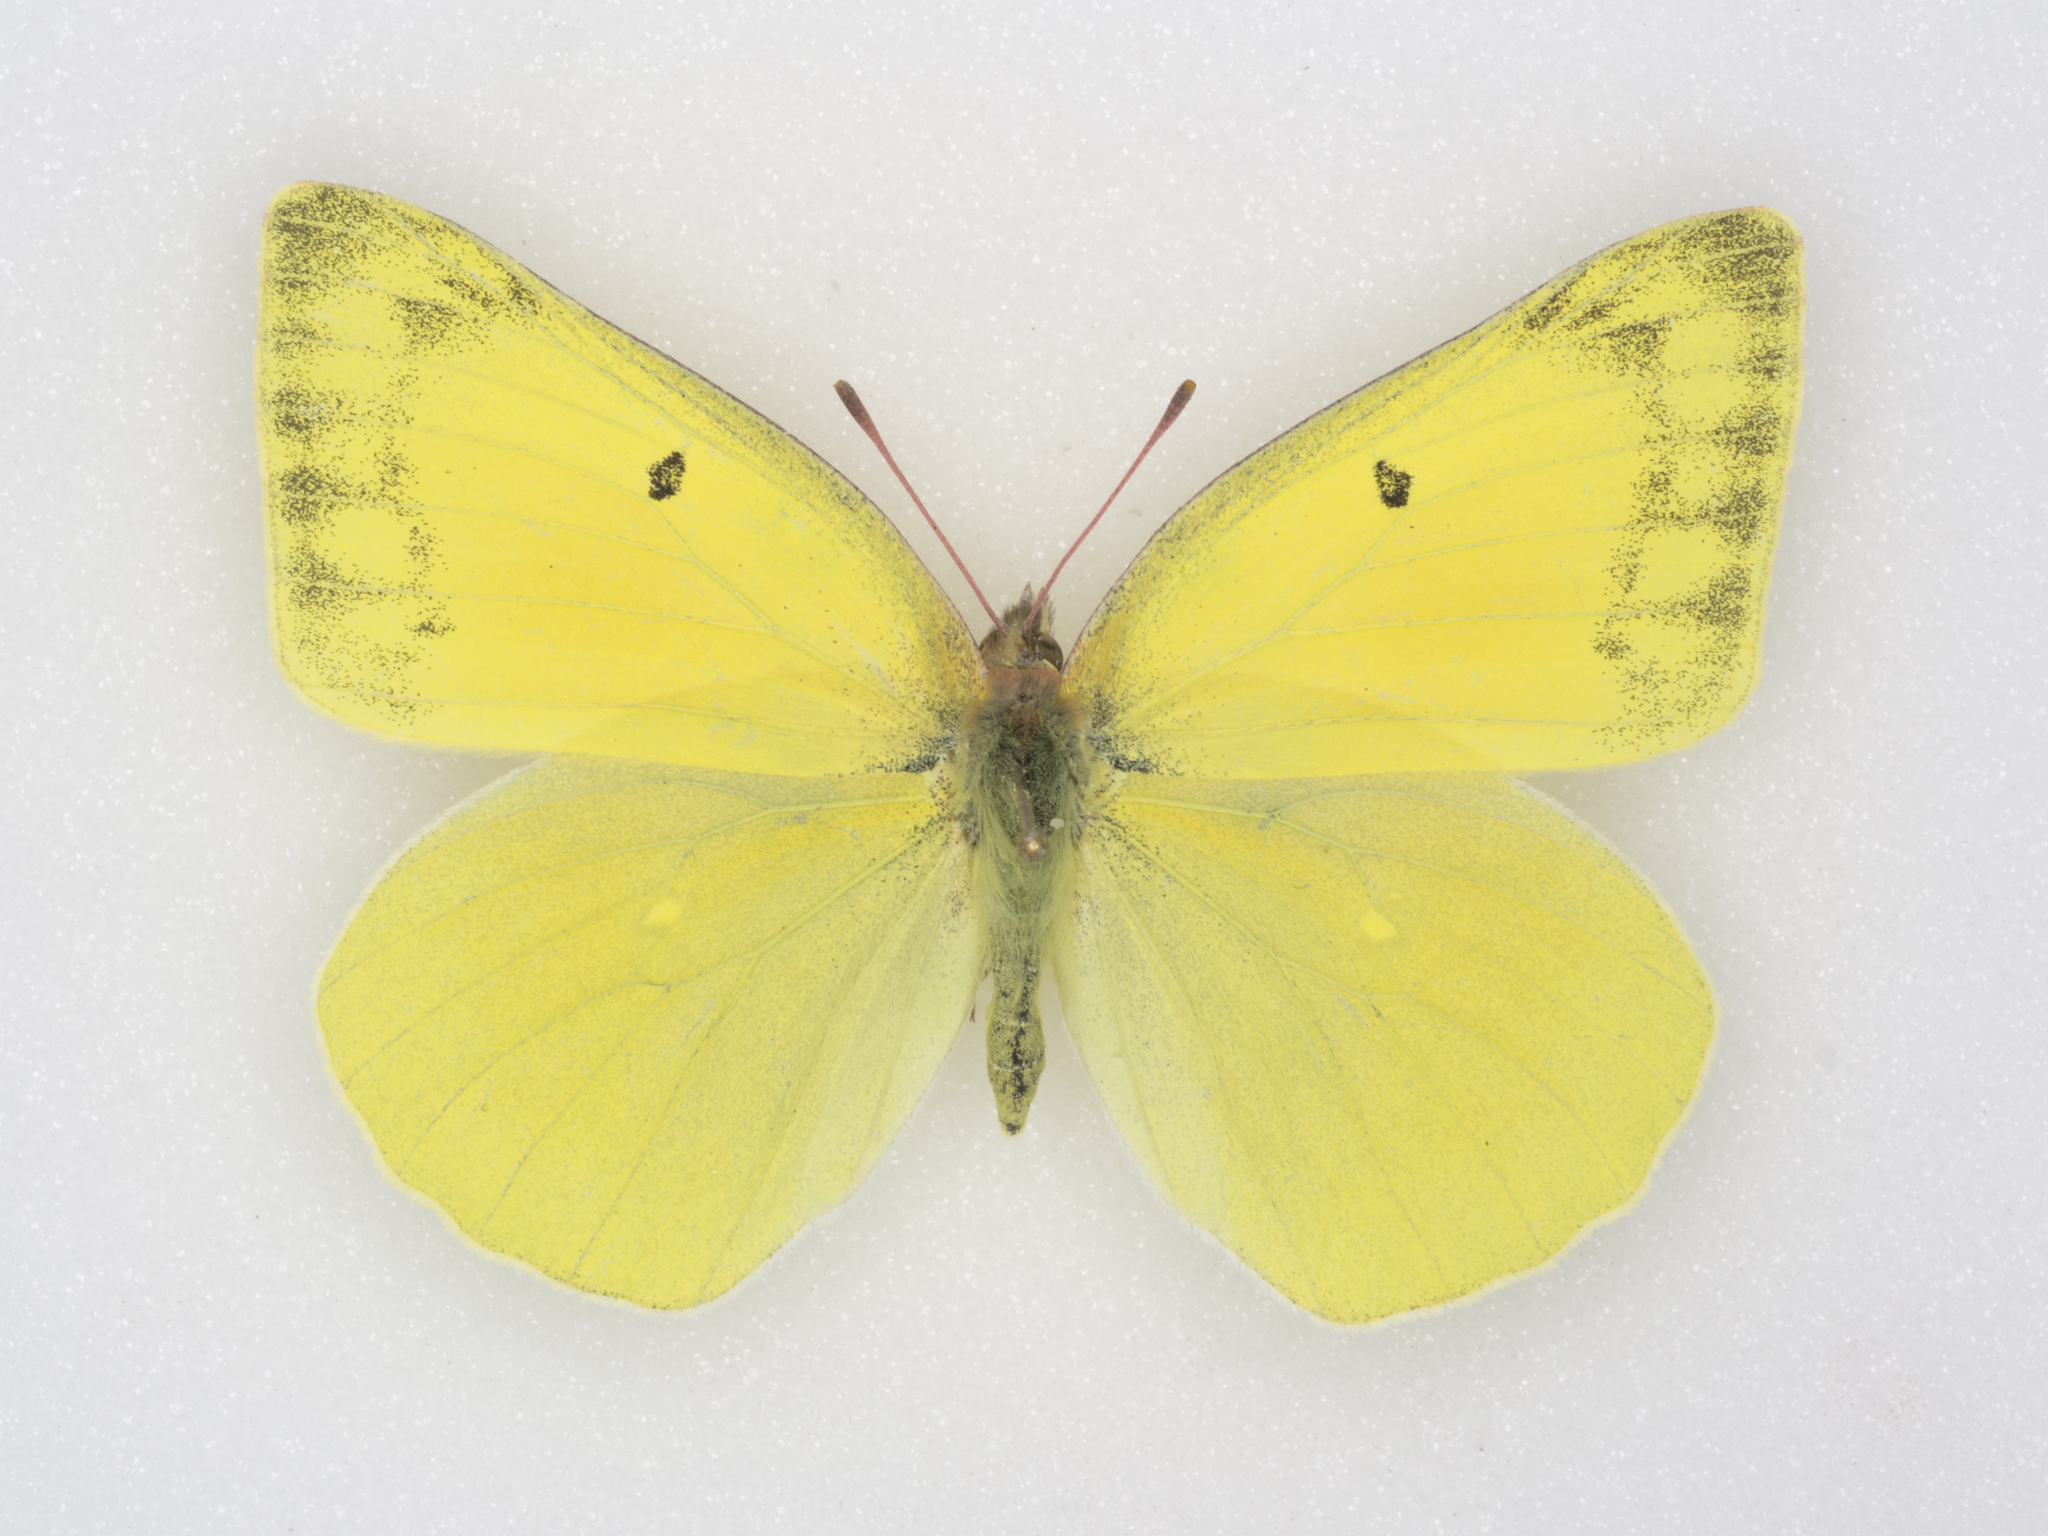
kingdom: Animalia
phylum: Arthropoda
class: Insecta
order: Lepidoptera
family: Pieridae
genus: Colias
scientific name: Colias alexandra
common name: Alexandra sulphur
